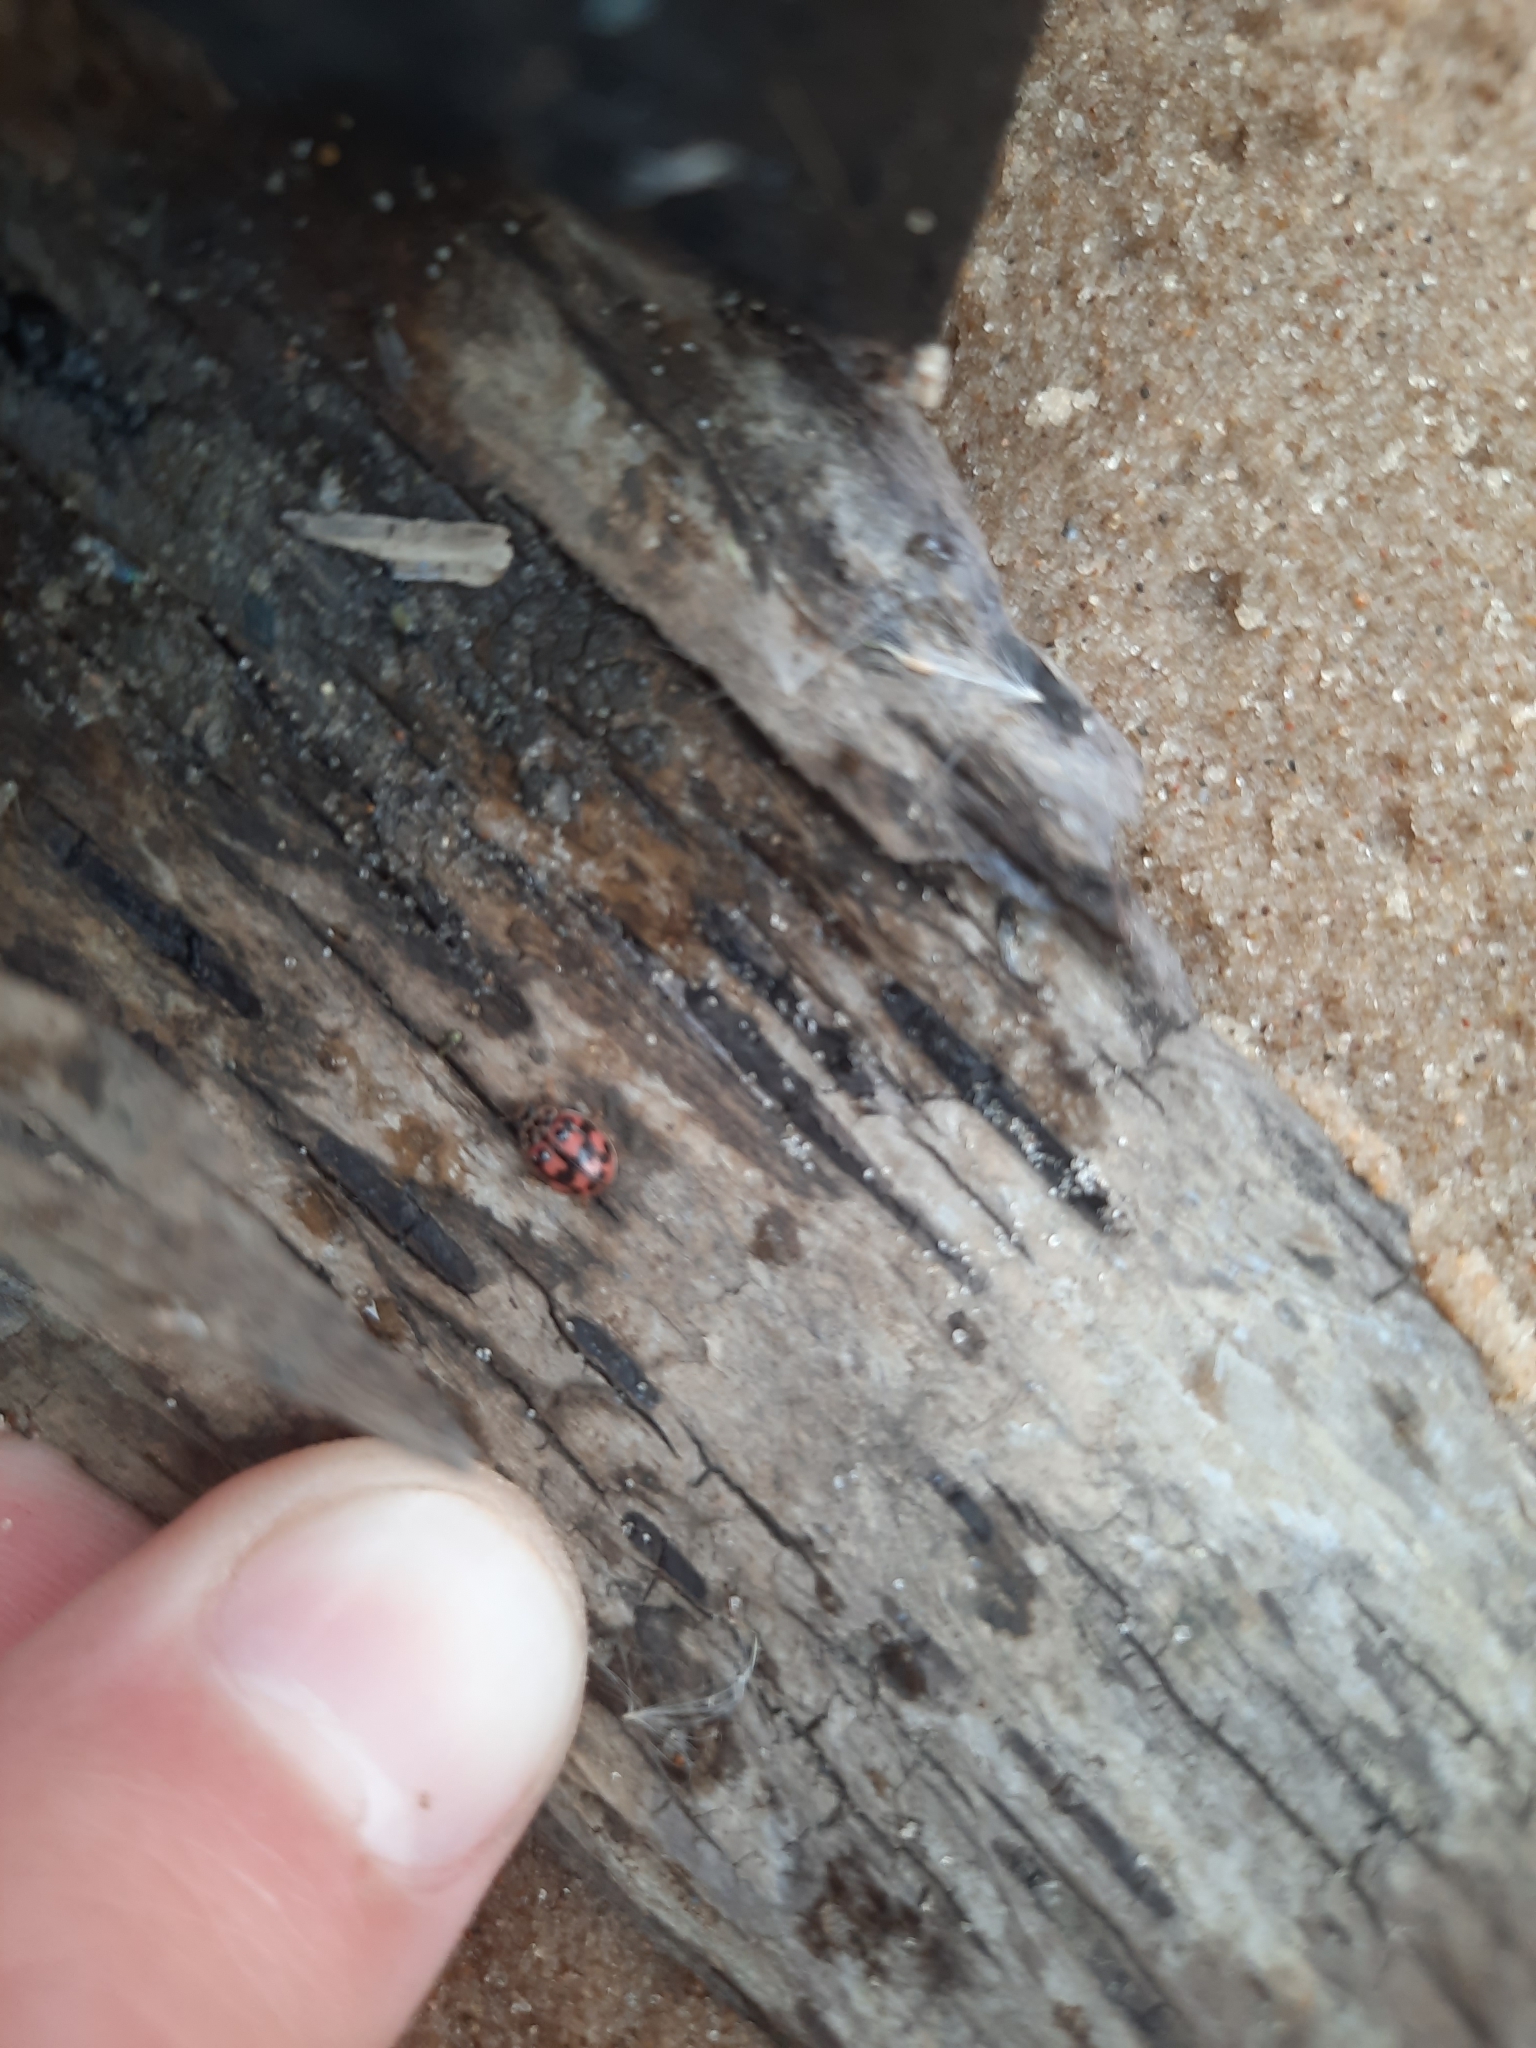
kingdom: Animalia
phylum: Arthropoda
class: Insecta
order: Coleoptera
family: Coccinellidae
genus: Oenopia
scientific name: Oenopia conglobata
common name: Ladybird beetle
